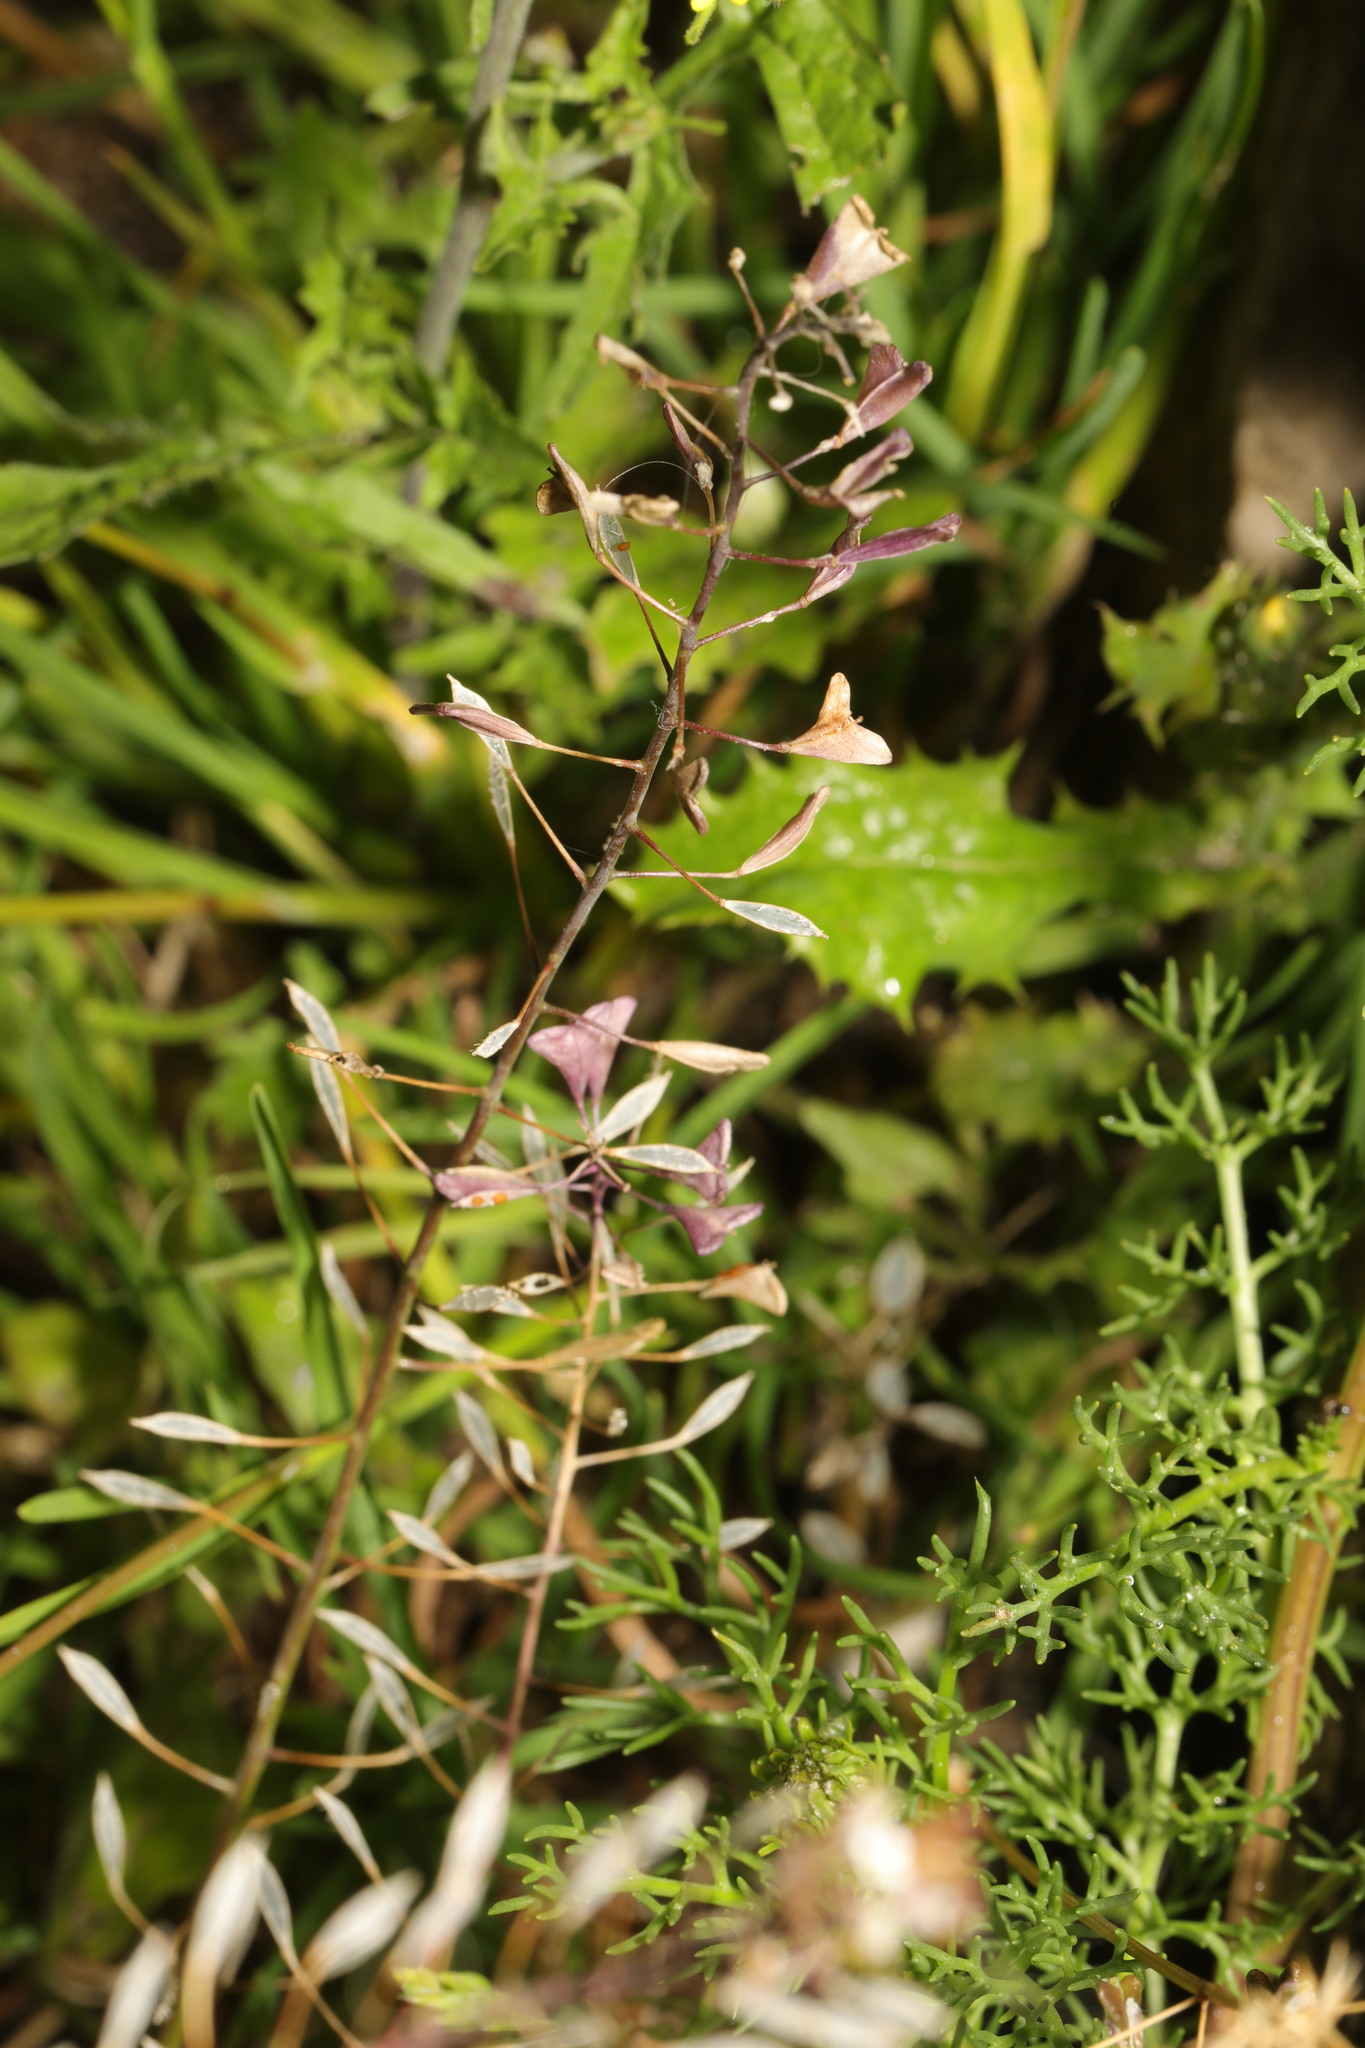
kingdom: Plantae
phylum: Tracheophyta
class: Magnoliopsida
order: Brassicales
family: Brassicaceae
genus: Capsella
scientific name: Capsella bursa-pastoris
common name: Shepherd's purse
